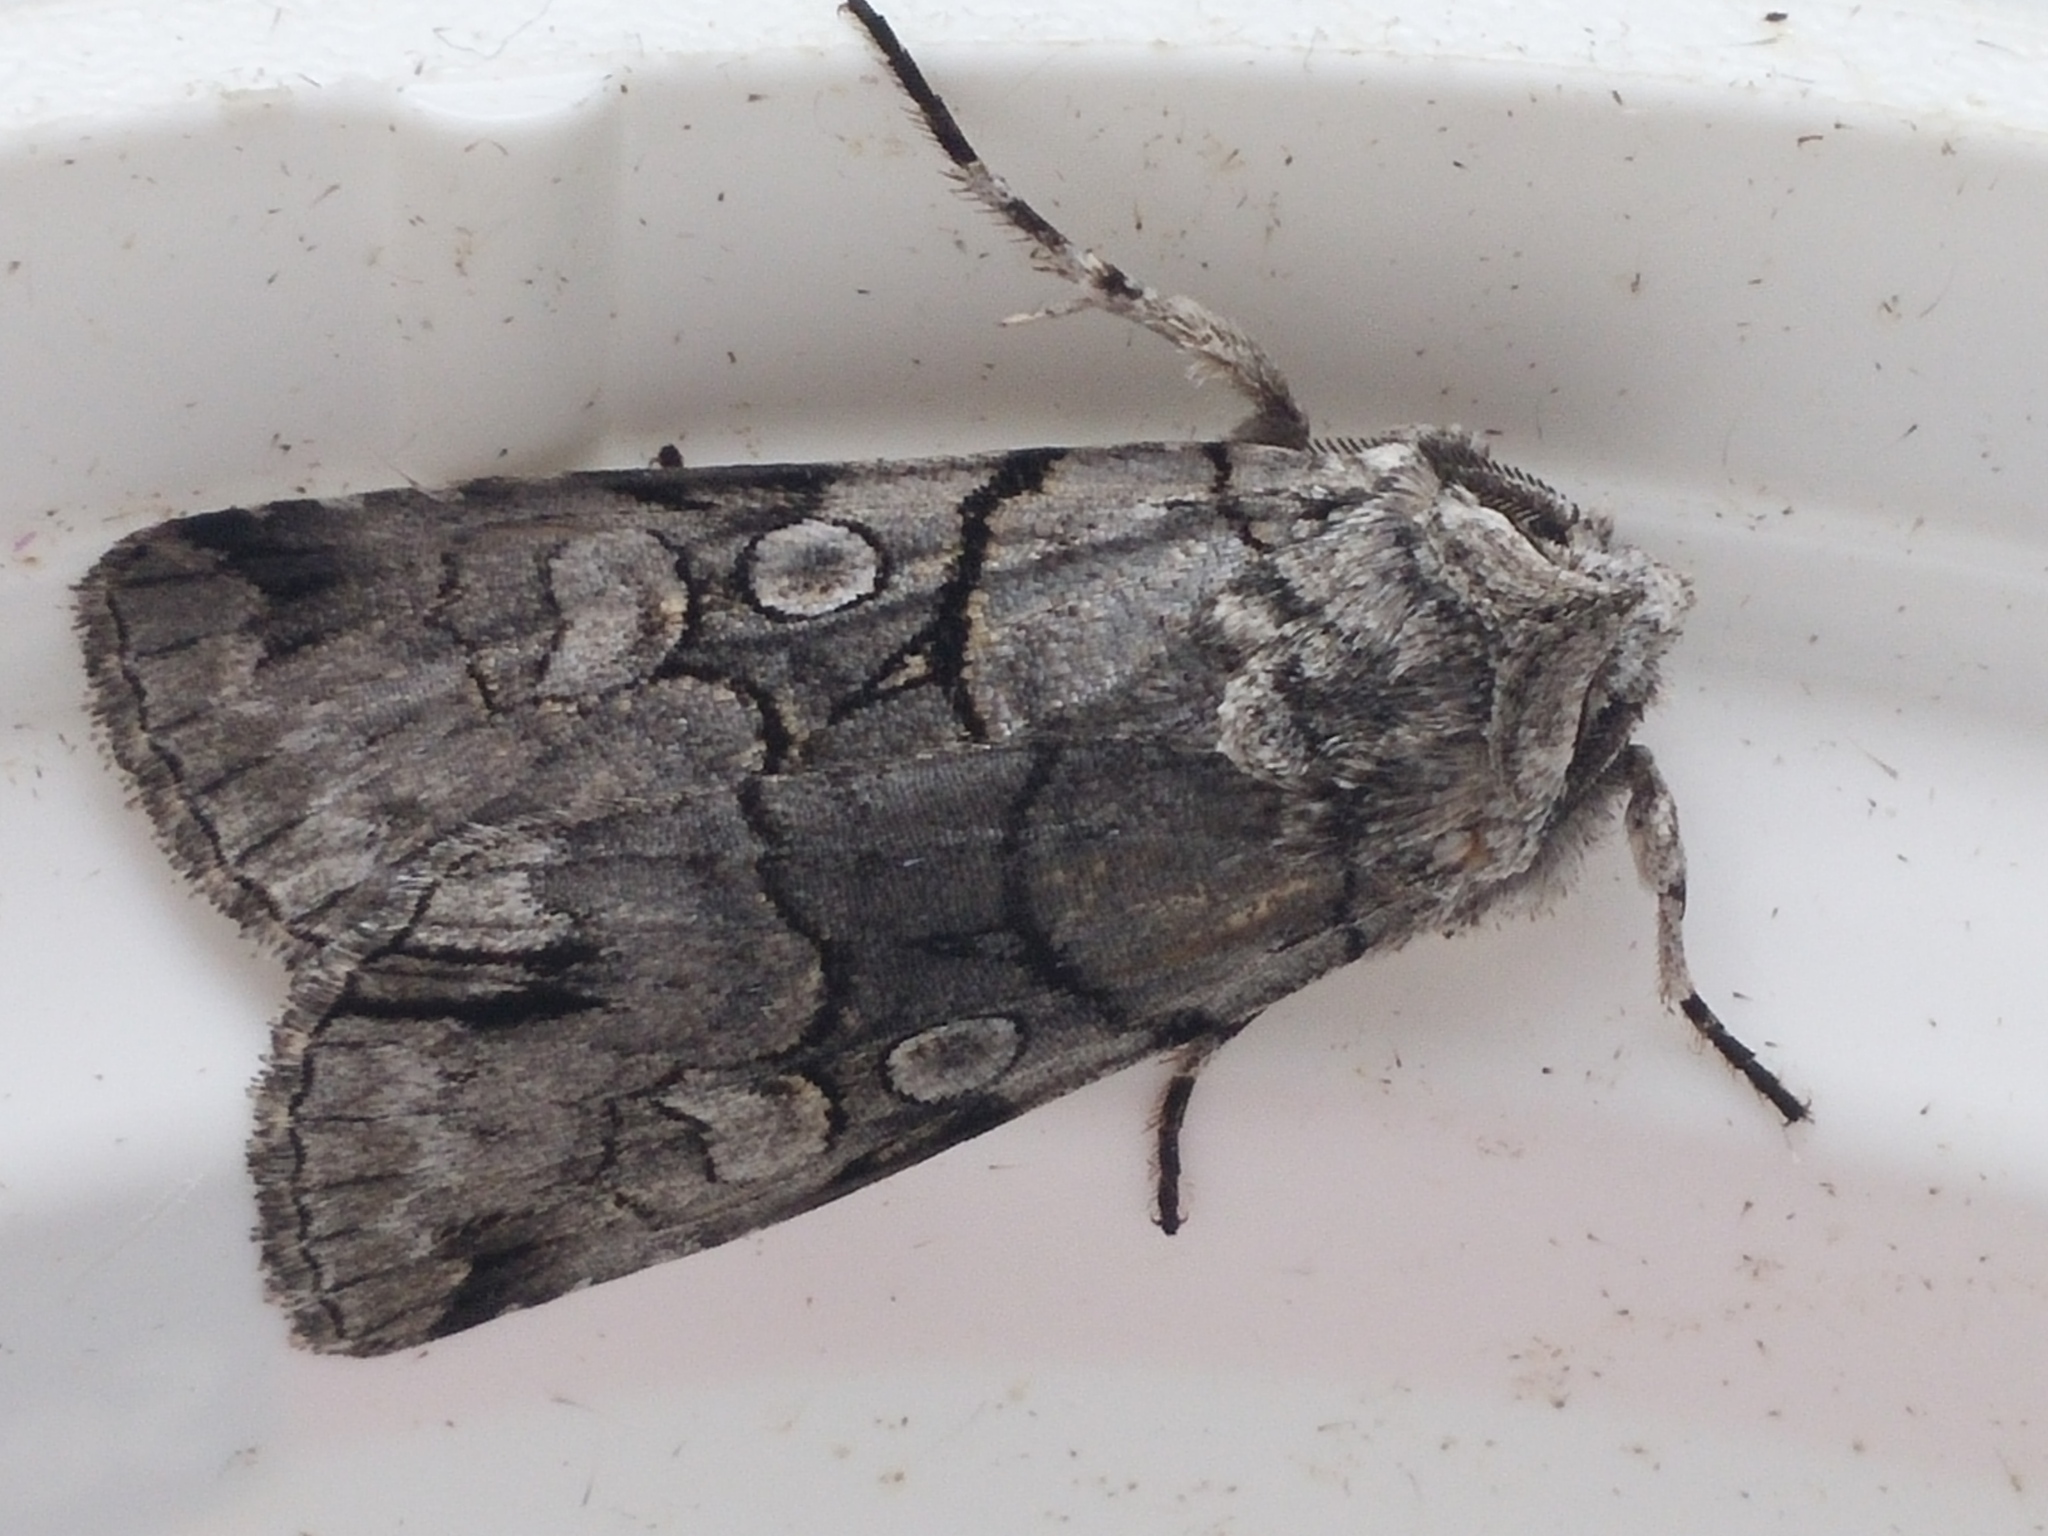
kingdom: Animalia
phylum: Arthropoda
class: Insecta
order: Lepidoptera
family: Noctuidae
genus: Sympistis
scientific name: Sympistis chionanthi
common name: Fringe-tree sallow
